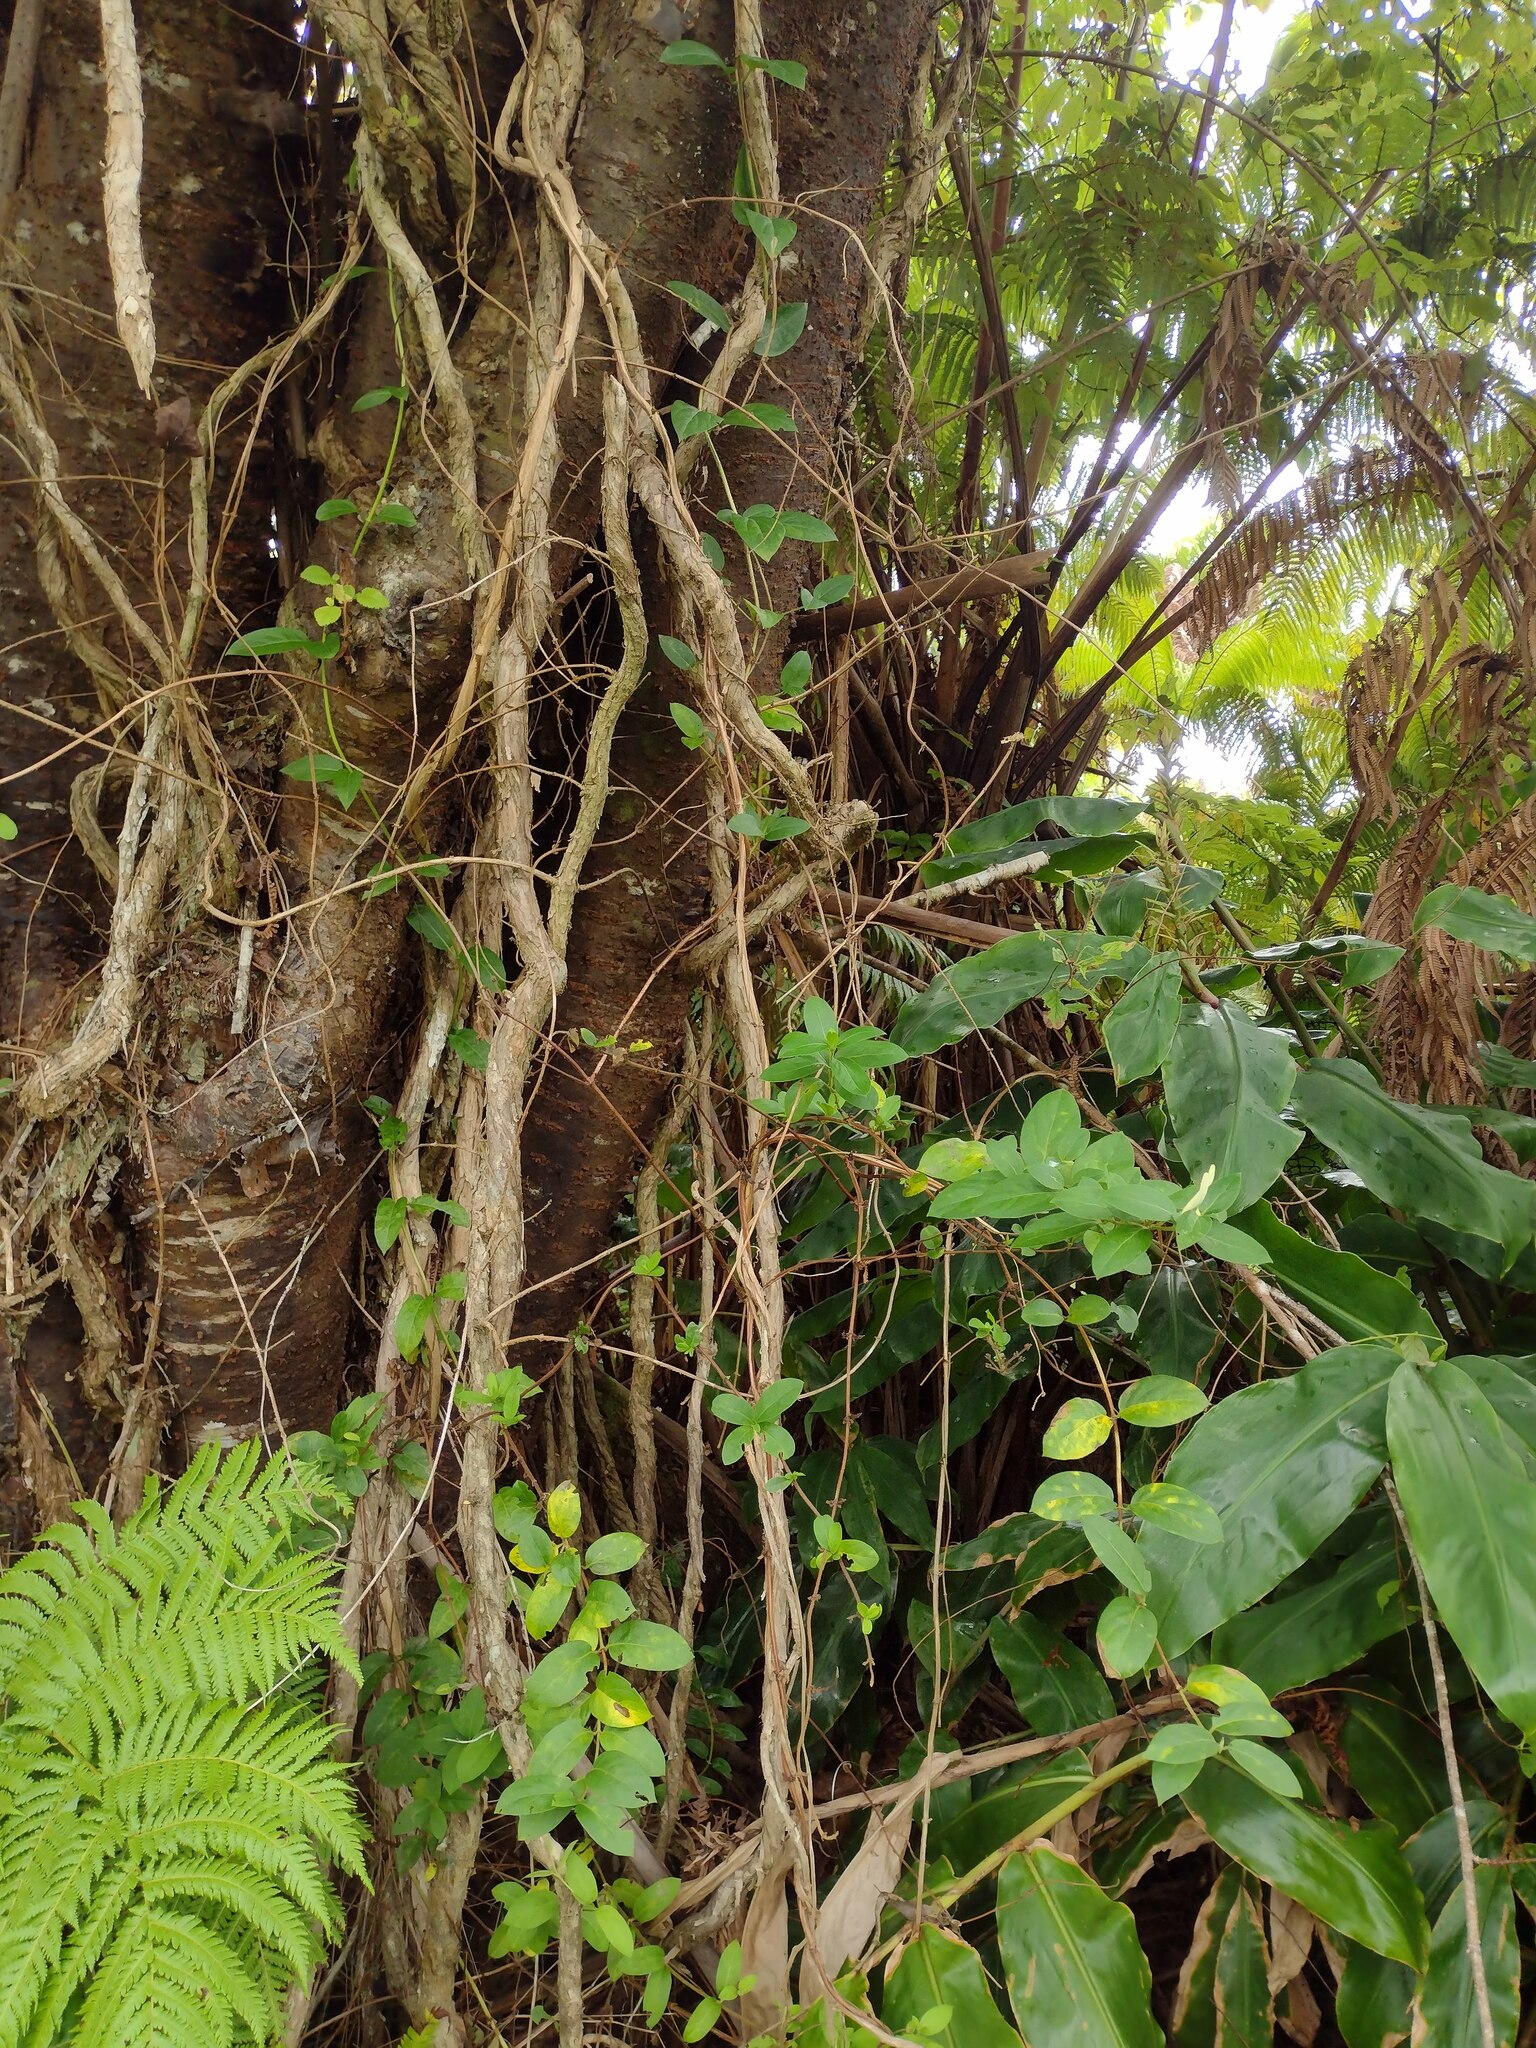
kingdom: Plantae
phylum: Tracheophyta
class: Magnoliopsida
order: Dipsacales
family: Caprifoliaceae
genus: Lonicera
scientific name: Lonicera japonica
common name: Japanese honeysuckle
